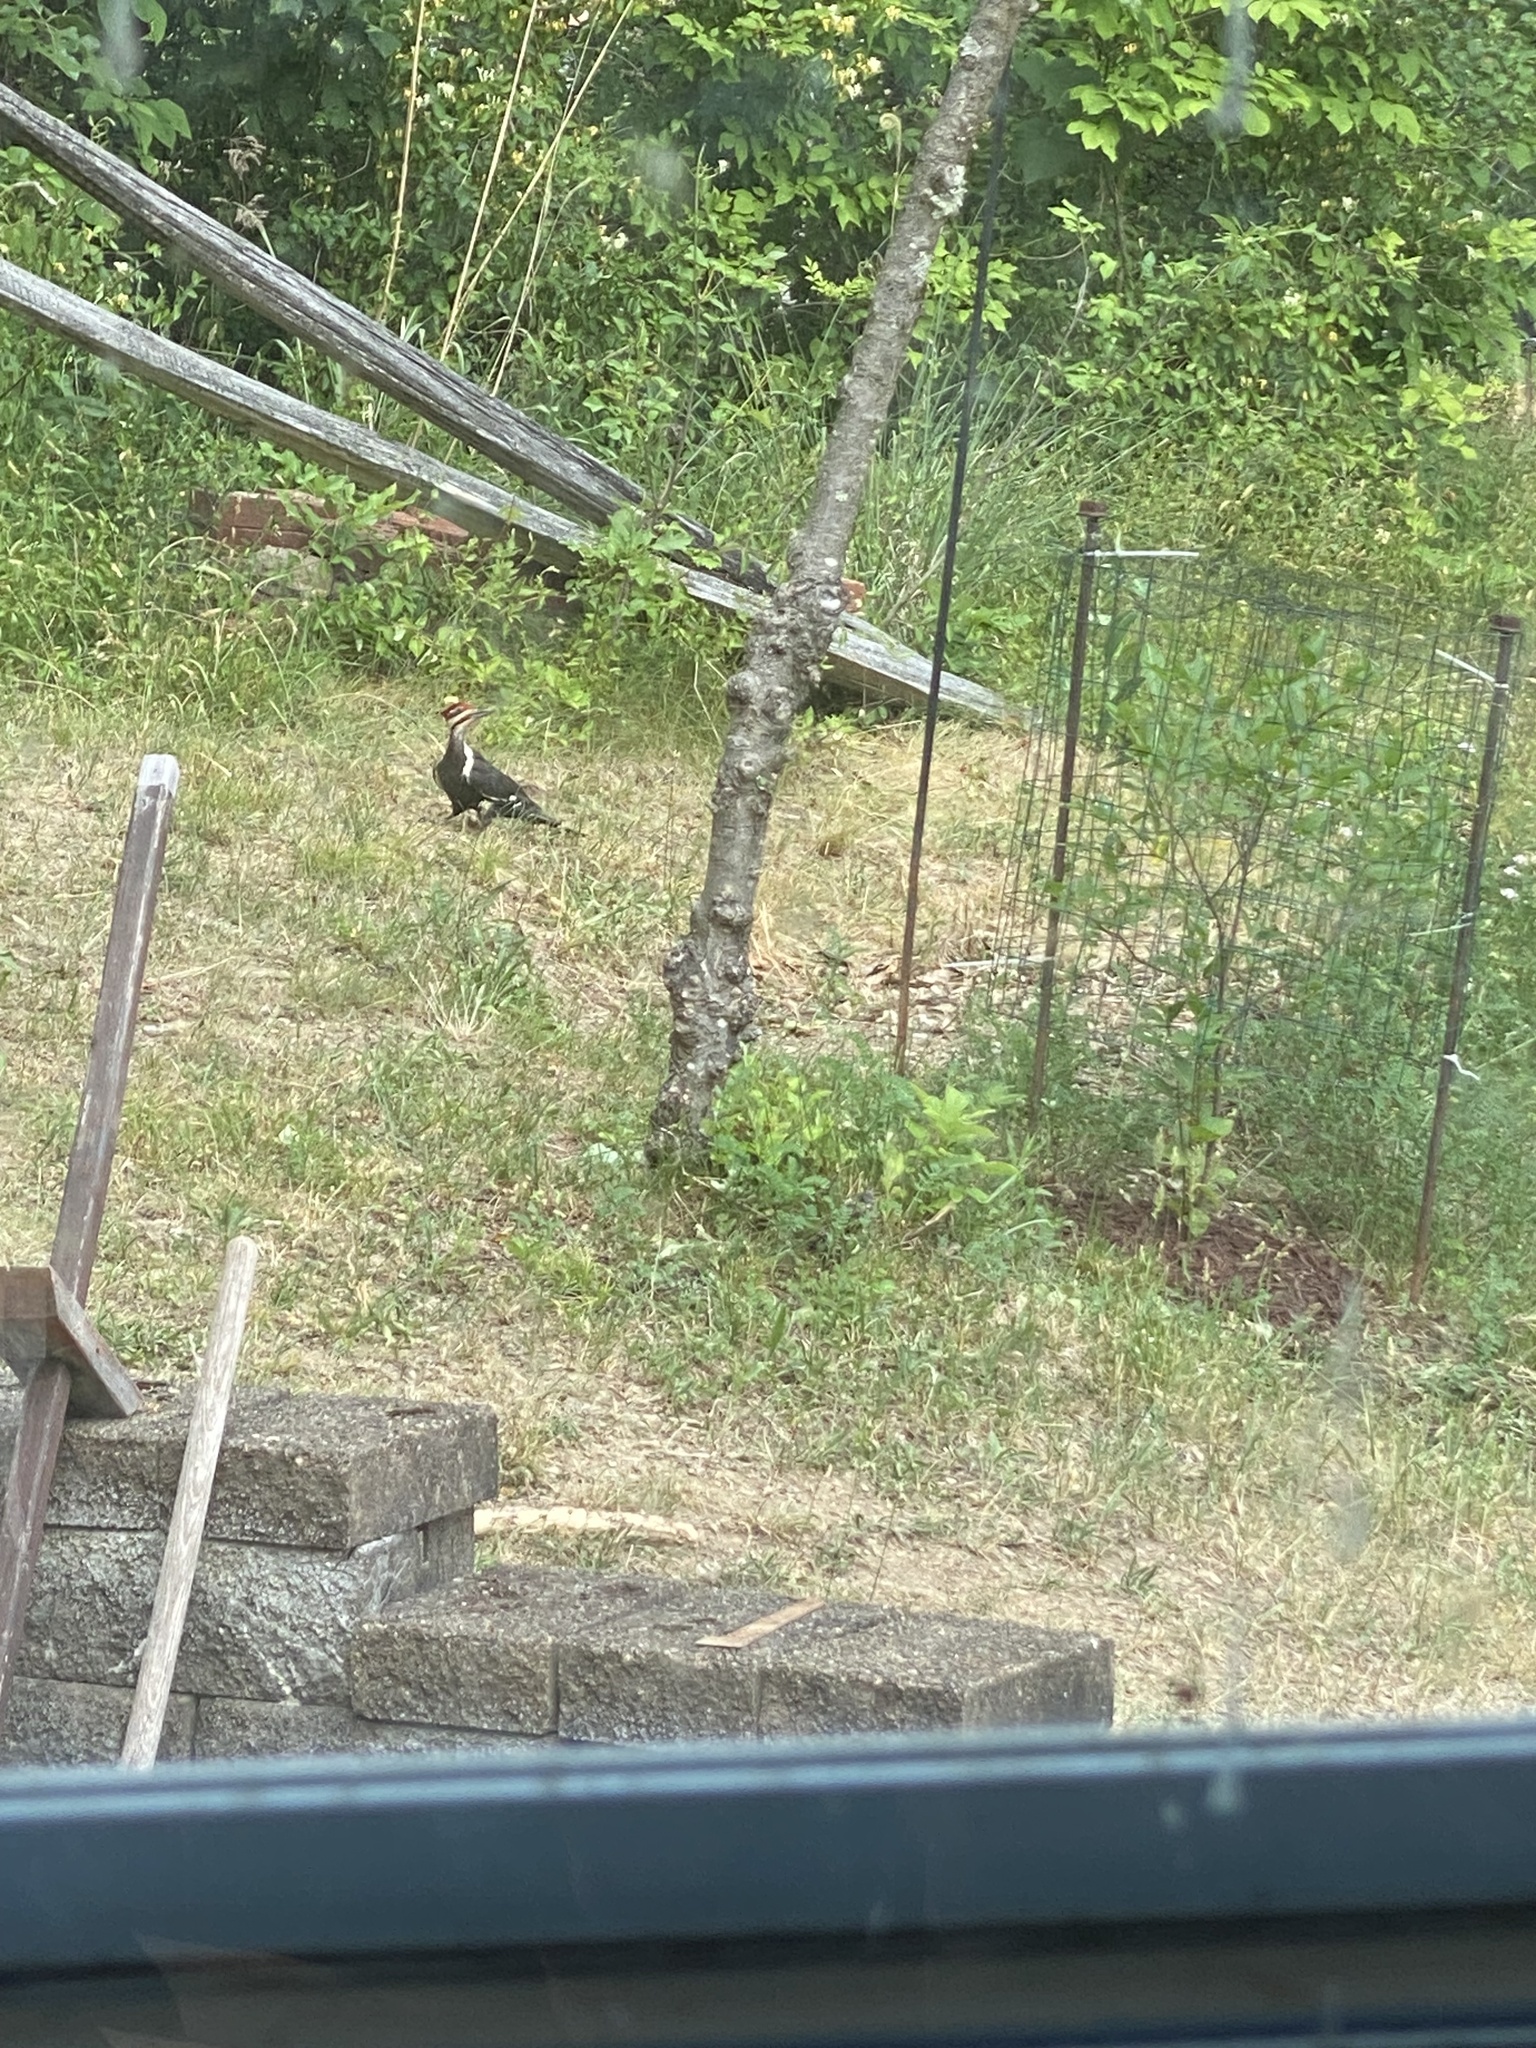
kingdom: Animalia
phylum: Chordata
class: Aves
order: Piciformes
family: Picidae
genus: Dryocopus
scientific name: Dryocopus pileatus
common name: Pileated woodpecker
